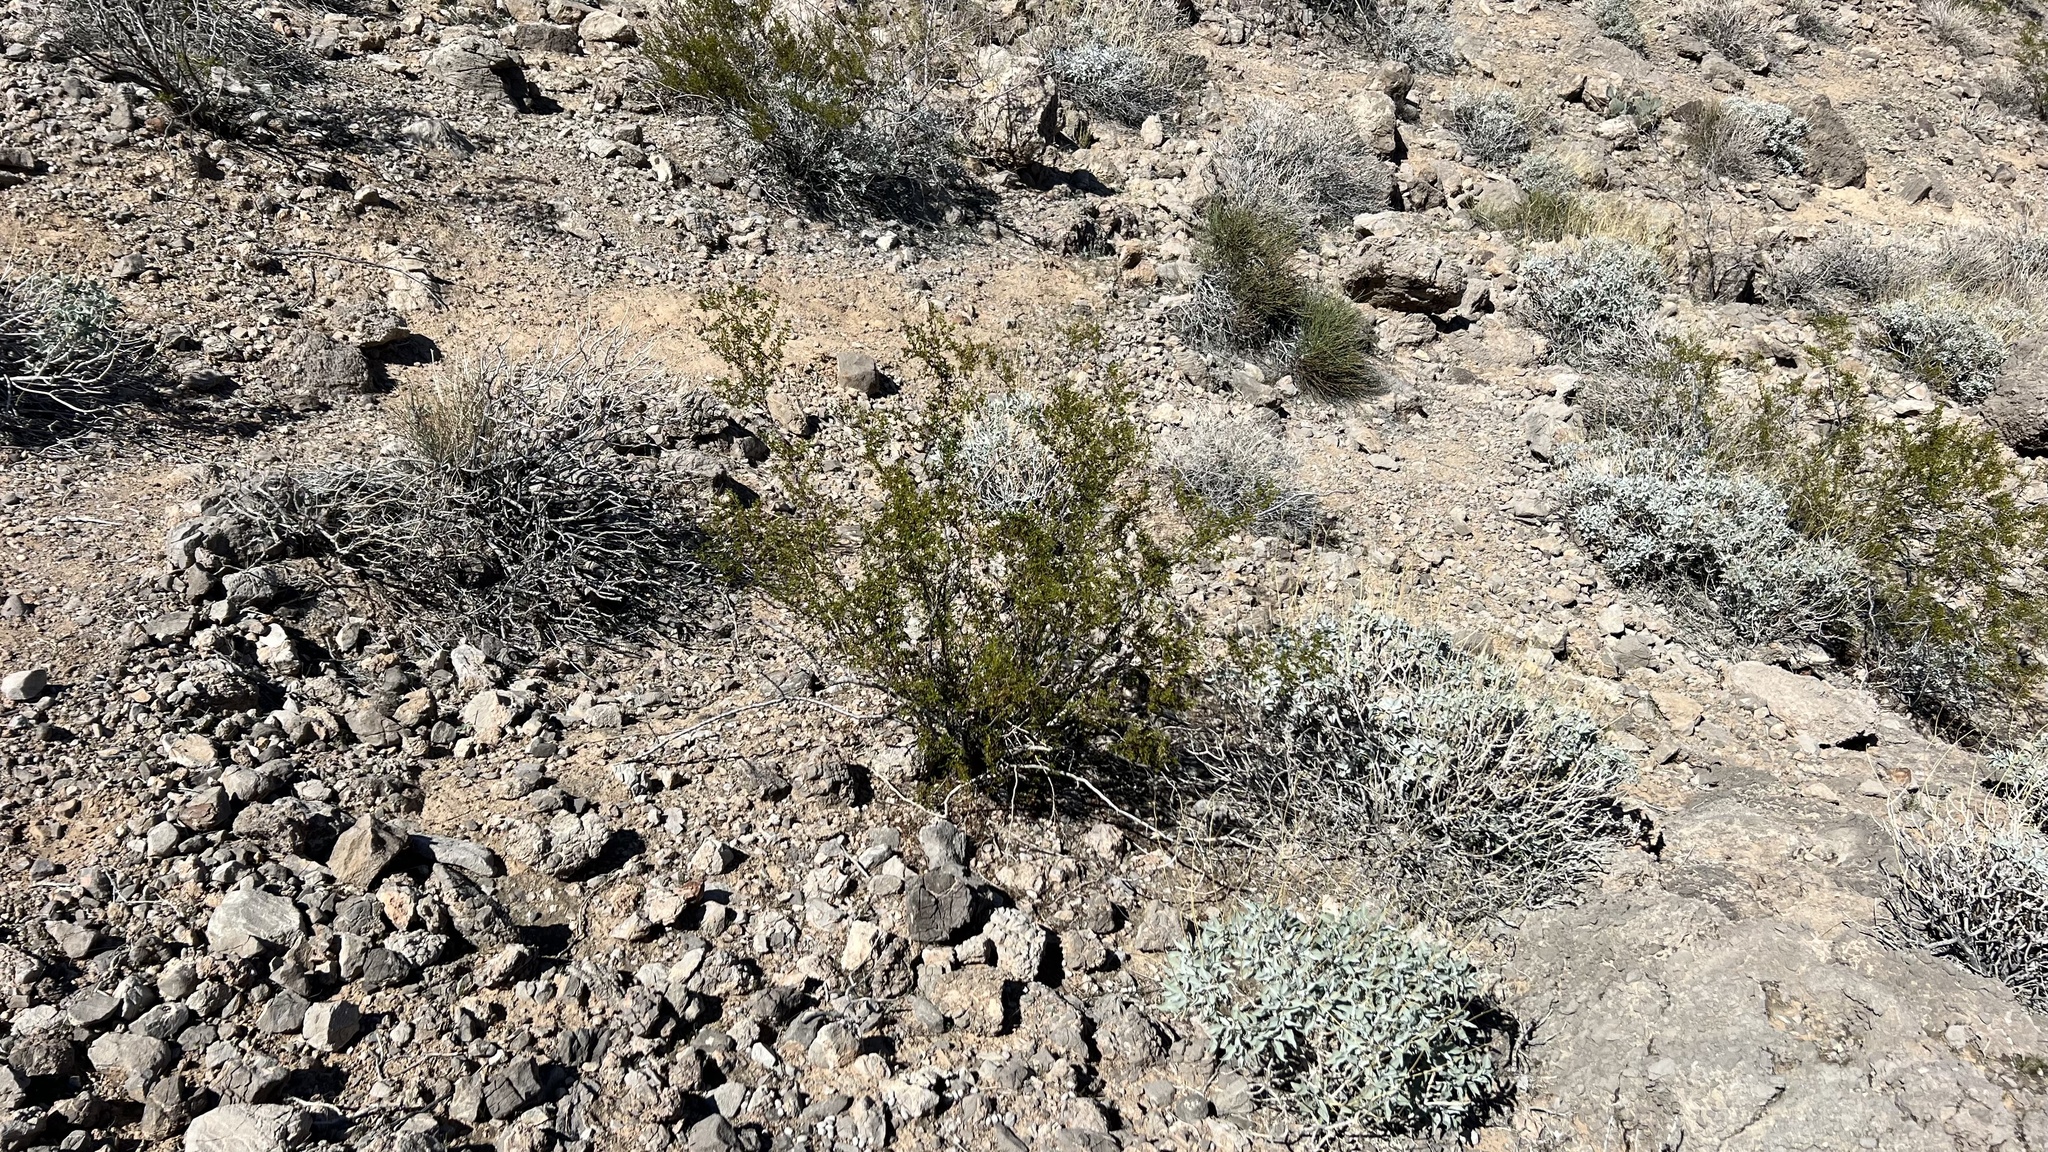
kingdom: Plantae
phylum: Tracheophyta
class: Magnoliopsida
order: Zygophyllales
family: Zygophyllaceae
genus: Larrea
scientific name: Larrea tridentata
